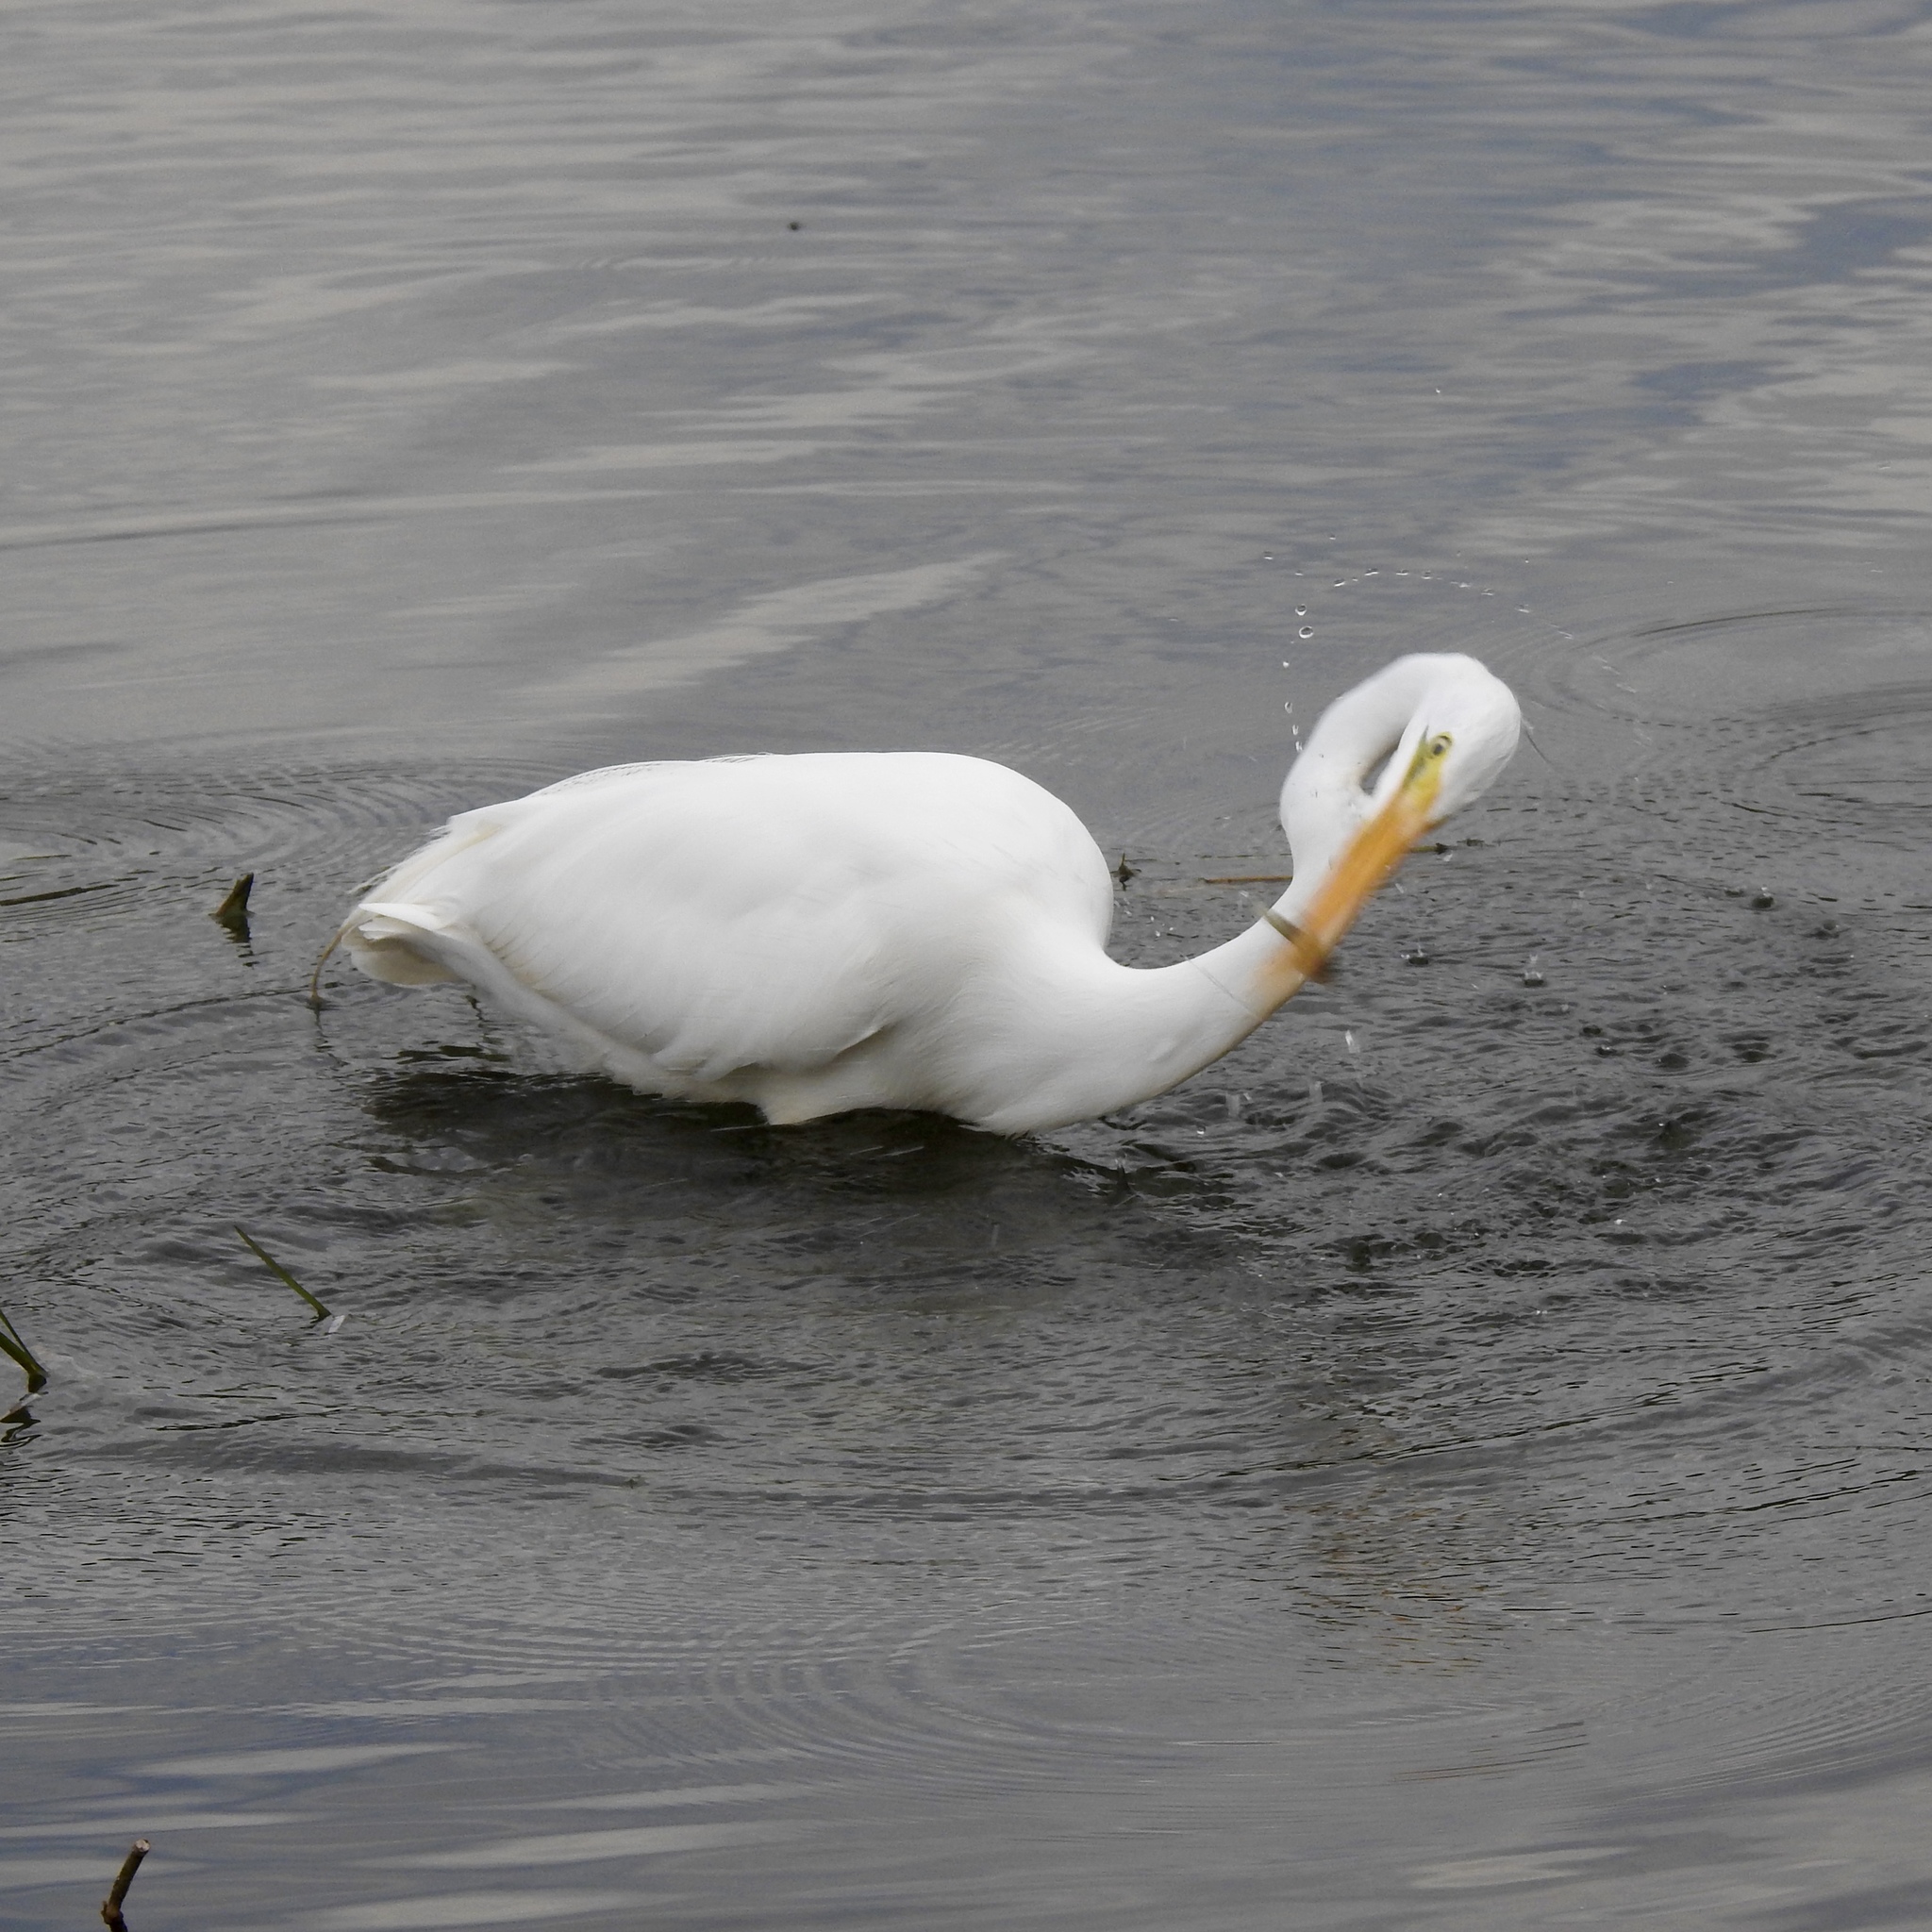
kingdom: Animalia
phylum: Chordata
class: Aves
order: Pelecaniformes
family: Ardeidae
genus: Ardea
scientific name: Ardea alba
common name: Great egret
